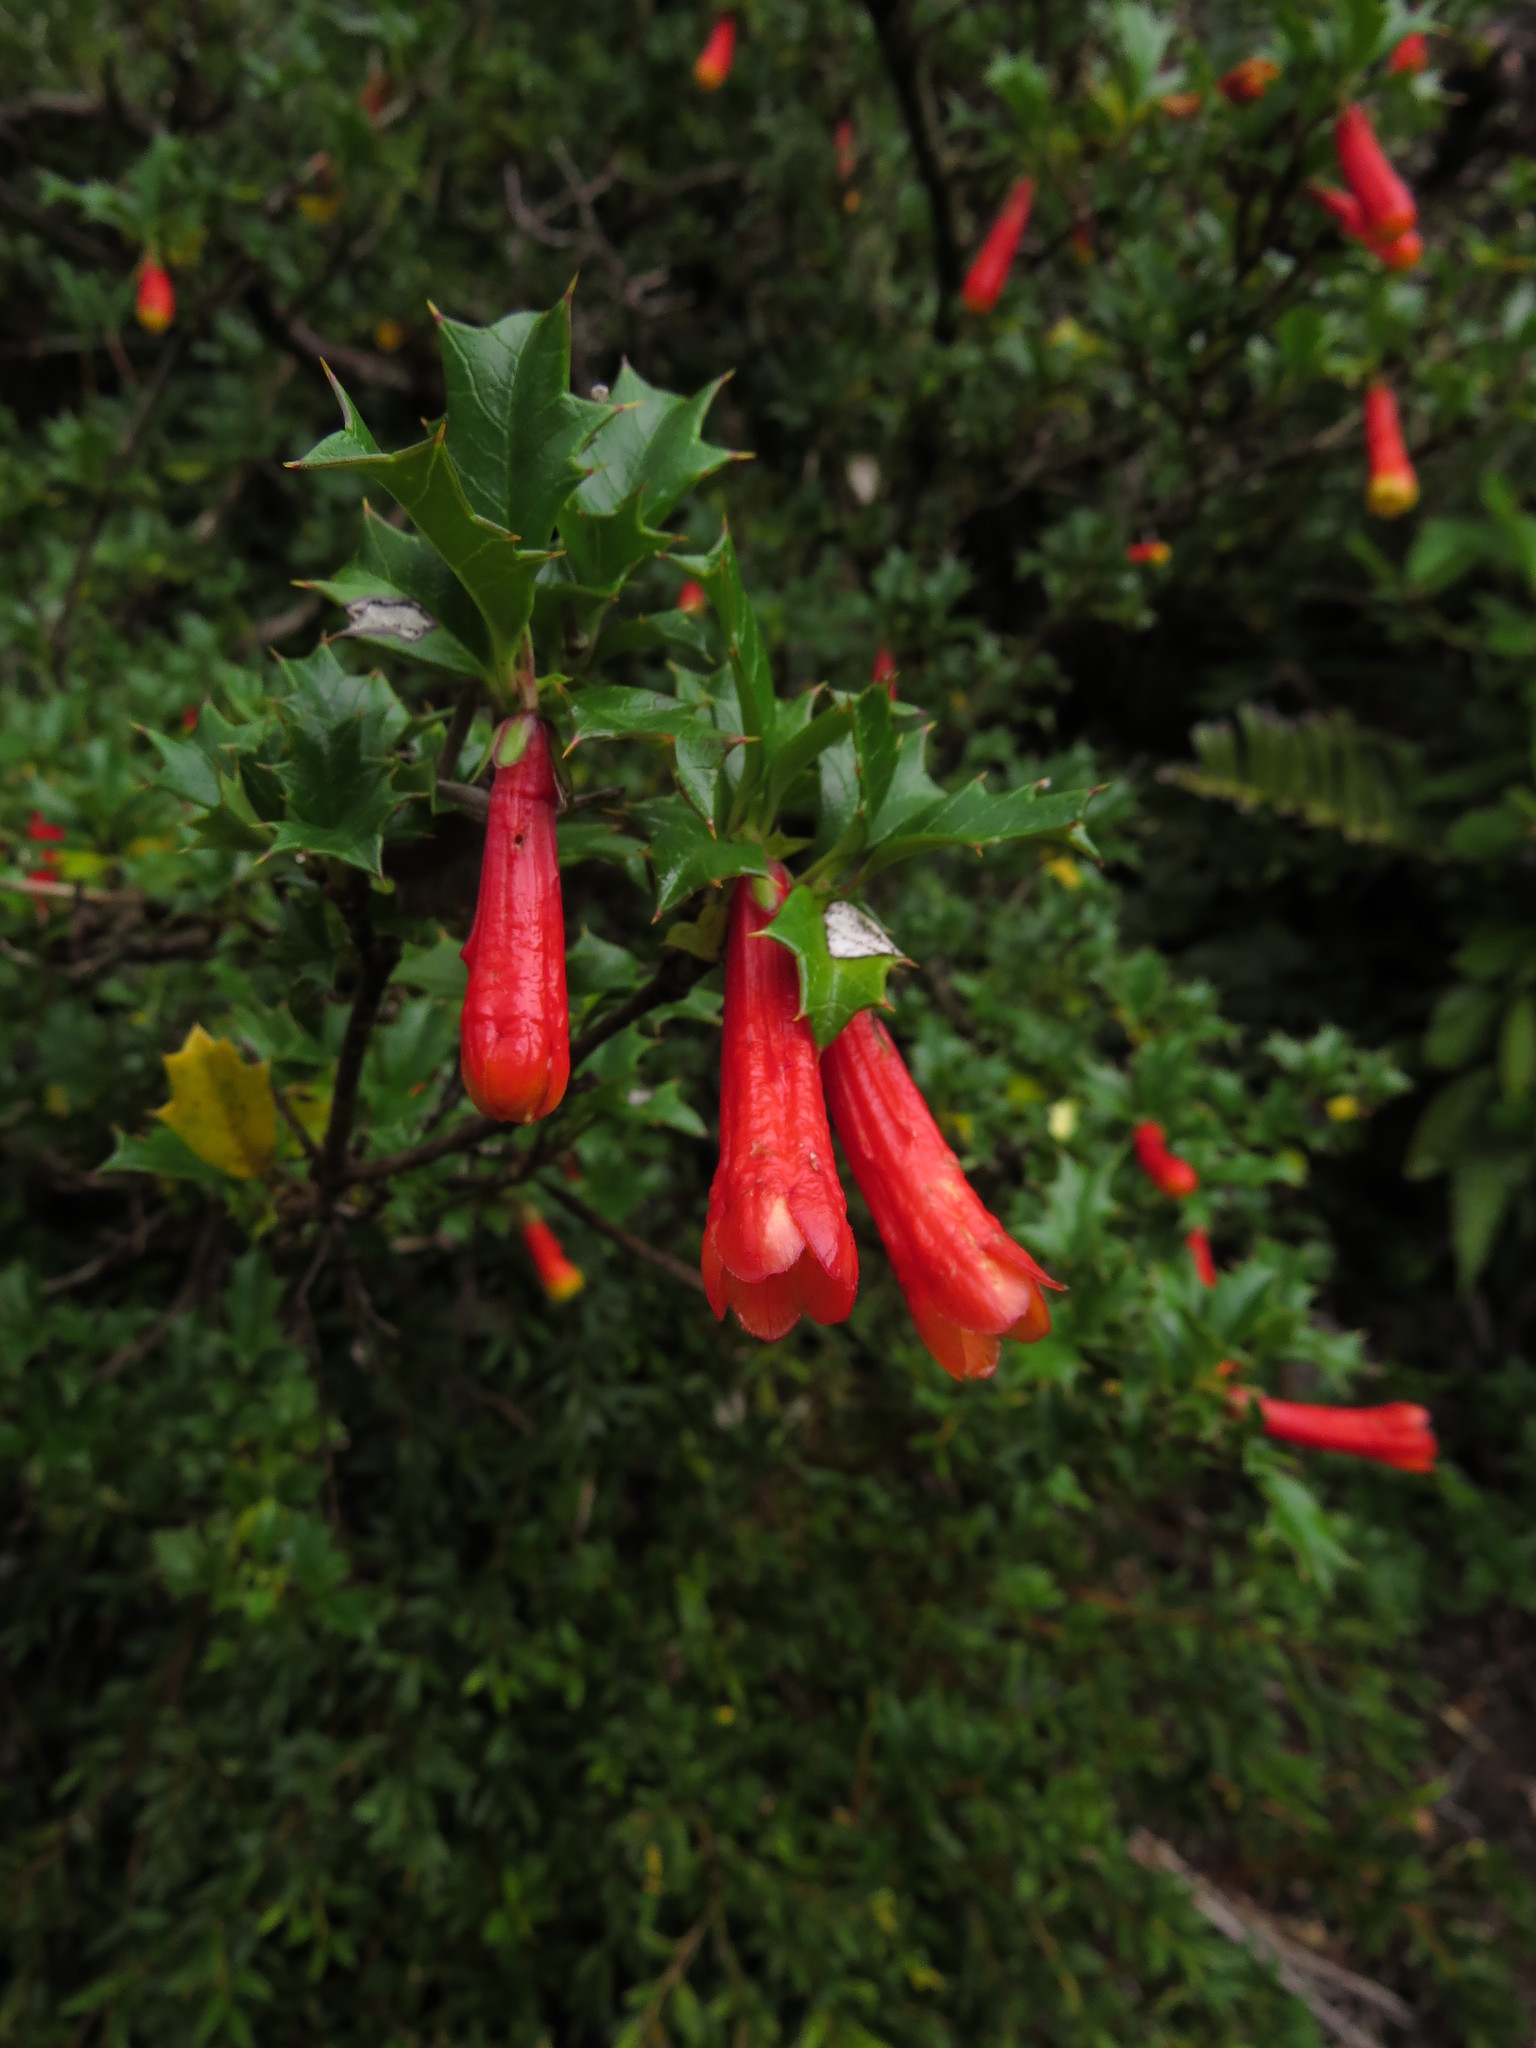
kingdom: Plantae
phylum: Tracheophyta
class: Magnoliopsida
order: Bruniales
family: Columelliaceae
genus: Desfontainia
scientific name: Desfontainia fulgens
